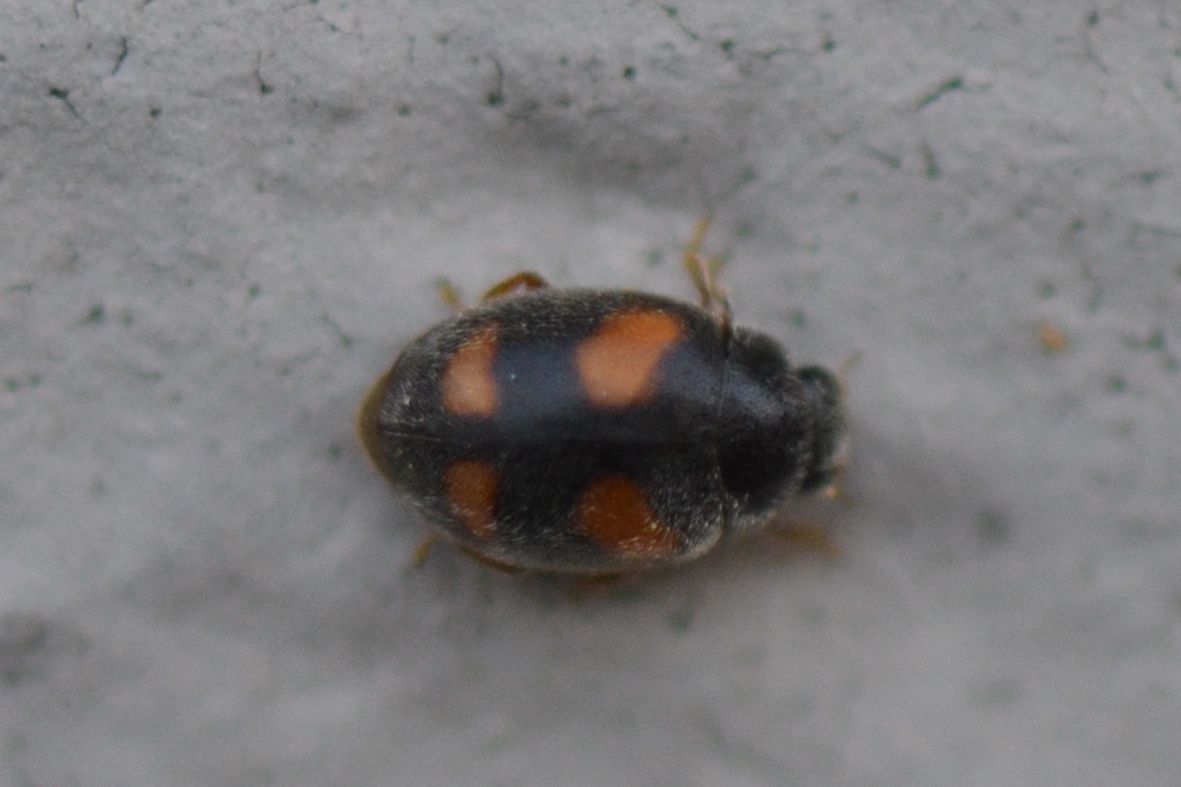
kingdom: Animalia
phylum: Arthropoda
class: Insecta
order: Coleoptera
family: Coccinellidae
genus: Nephus
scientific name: Nephus quadrimaculatus
